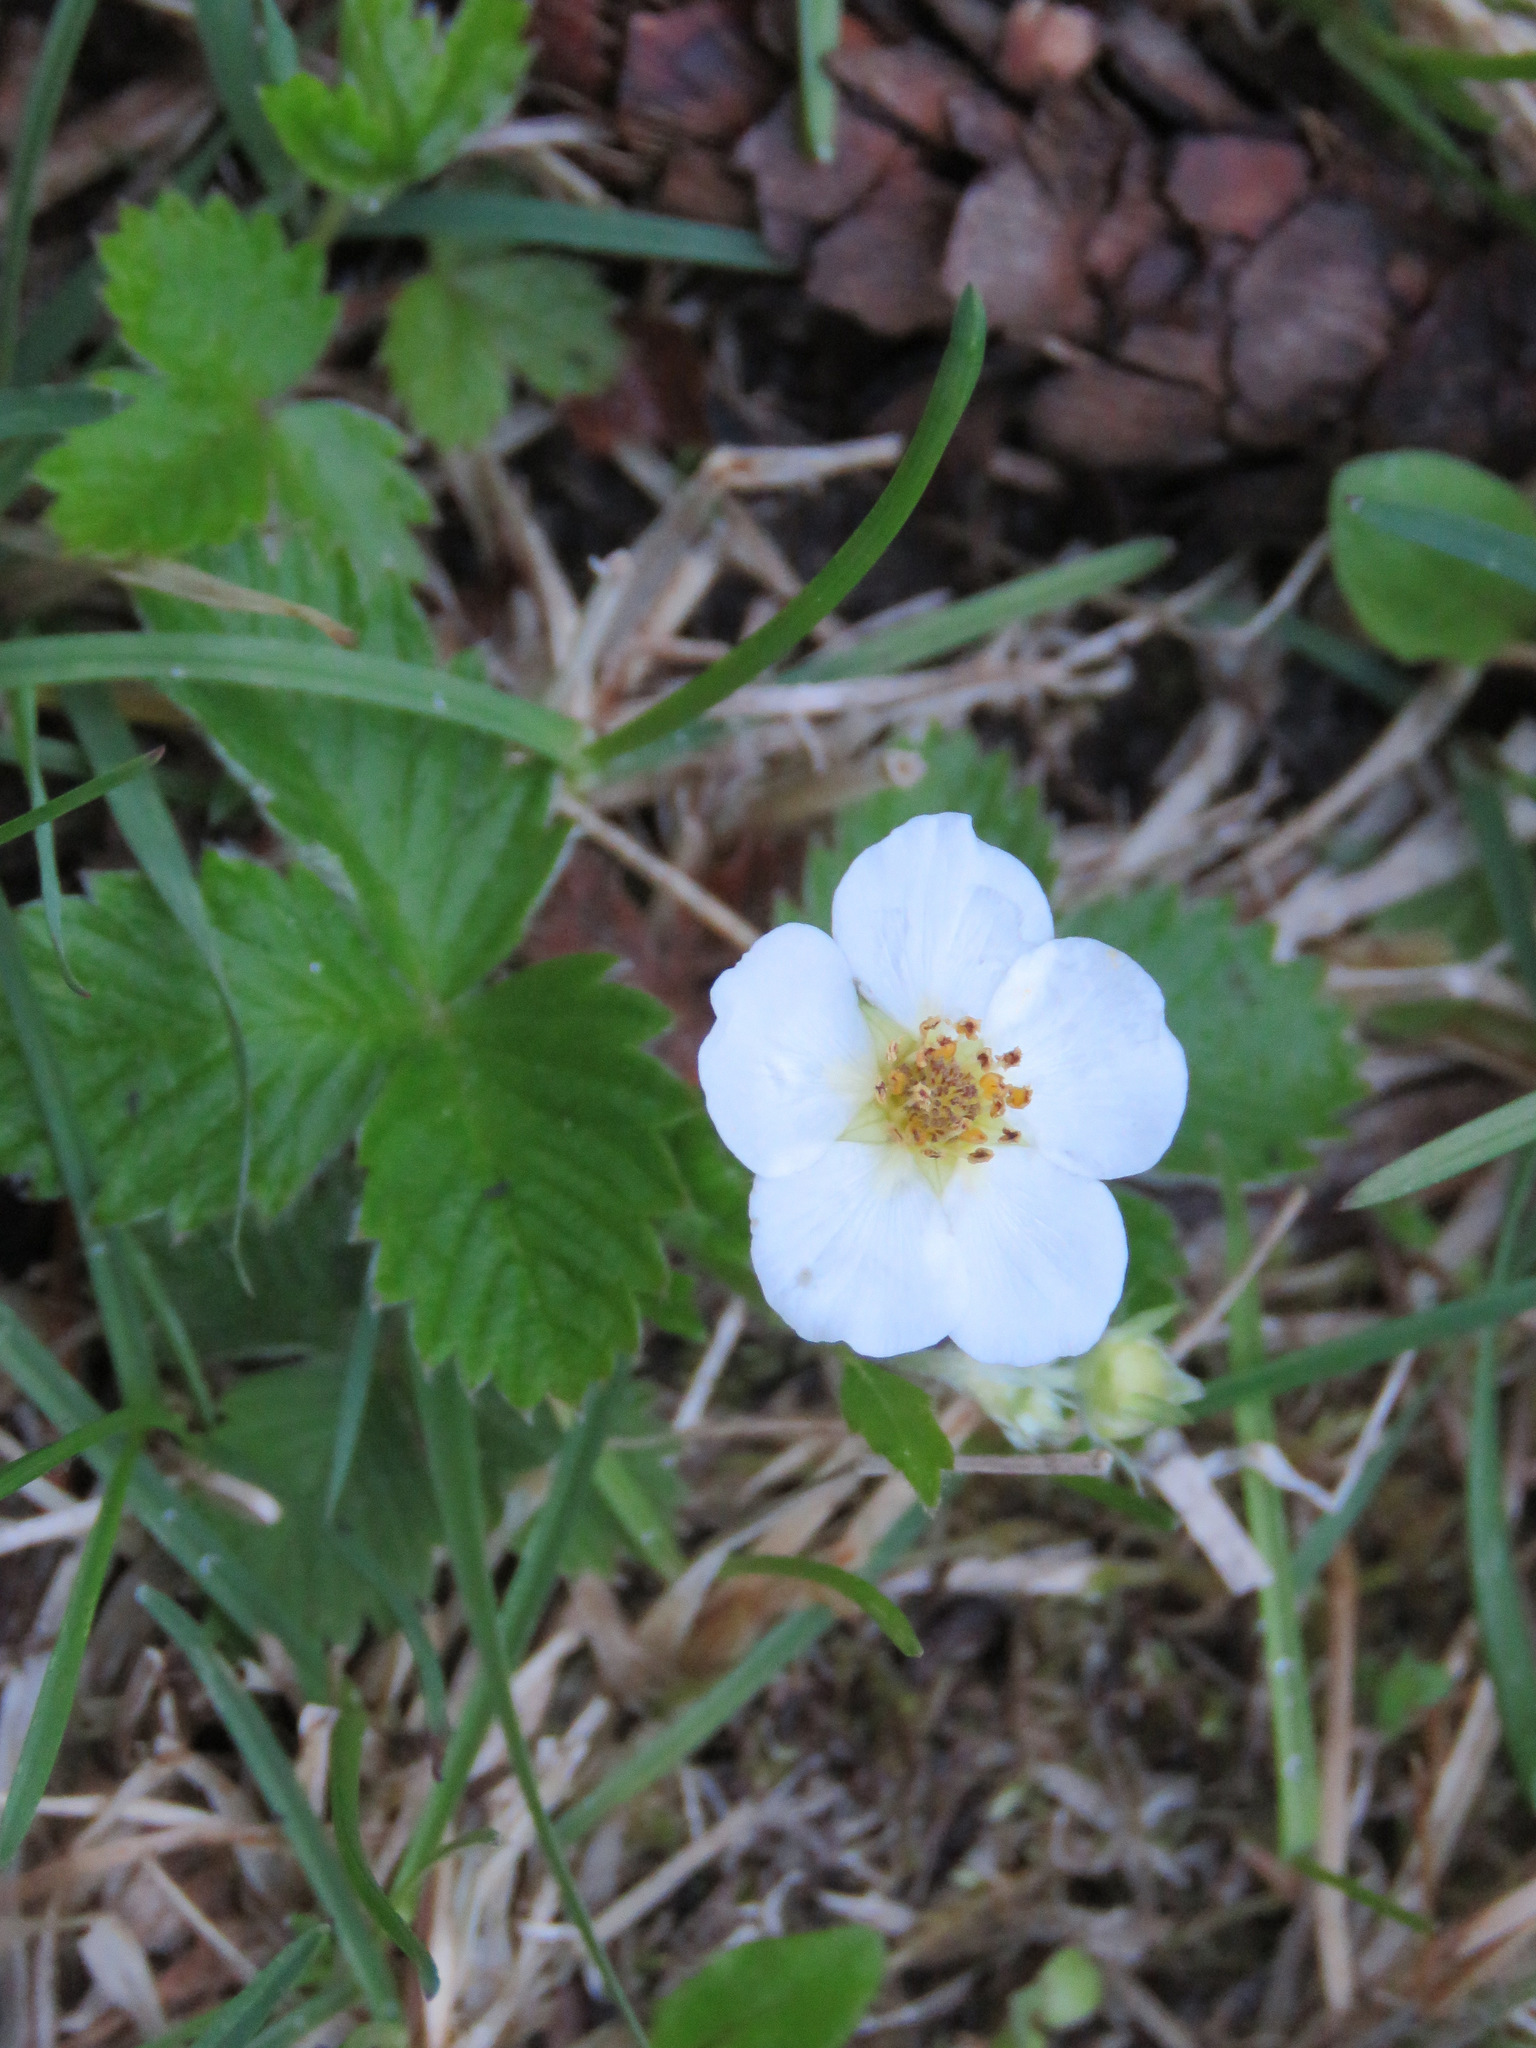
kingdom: Plantae
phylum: Tracheophyta
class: Magnoliopsida
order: Rosales
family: Rosaceae
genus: Fragaria
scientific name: Fragaria vesca
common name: Wild strawberry
